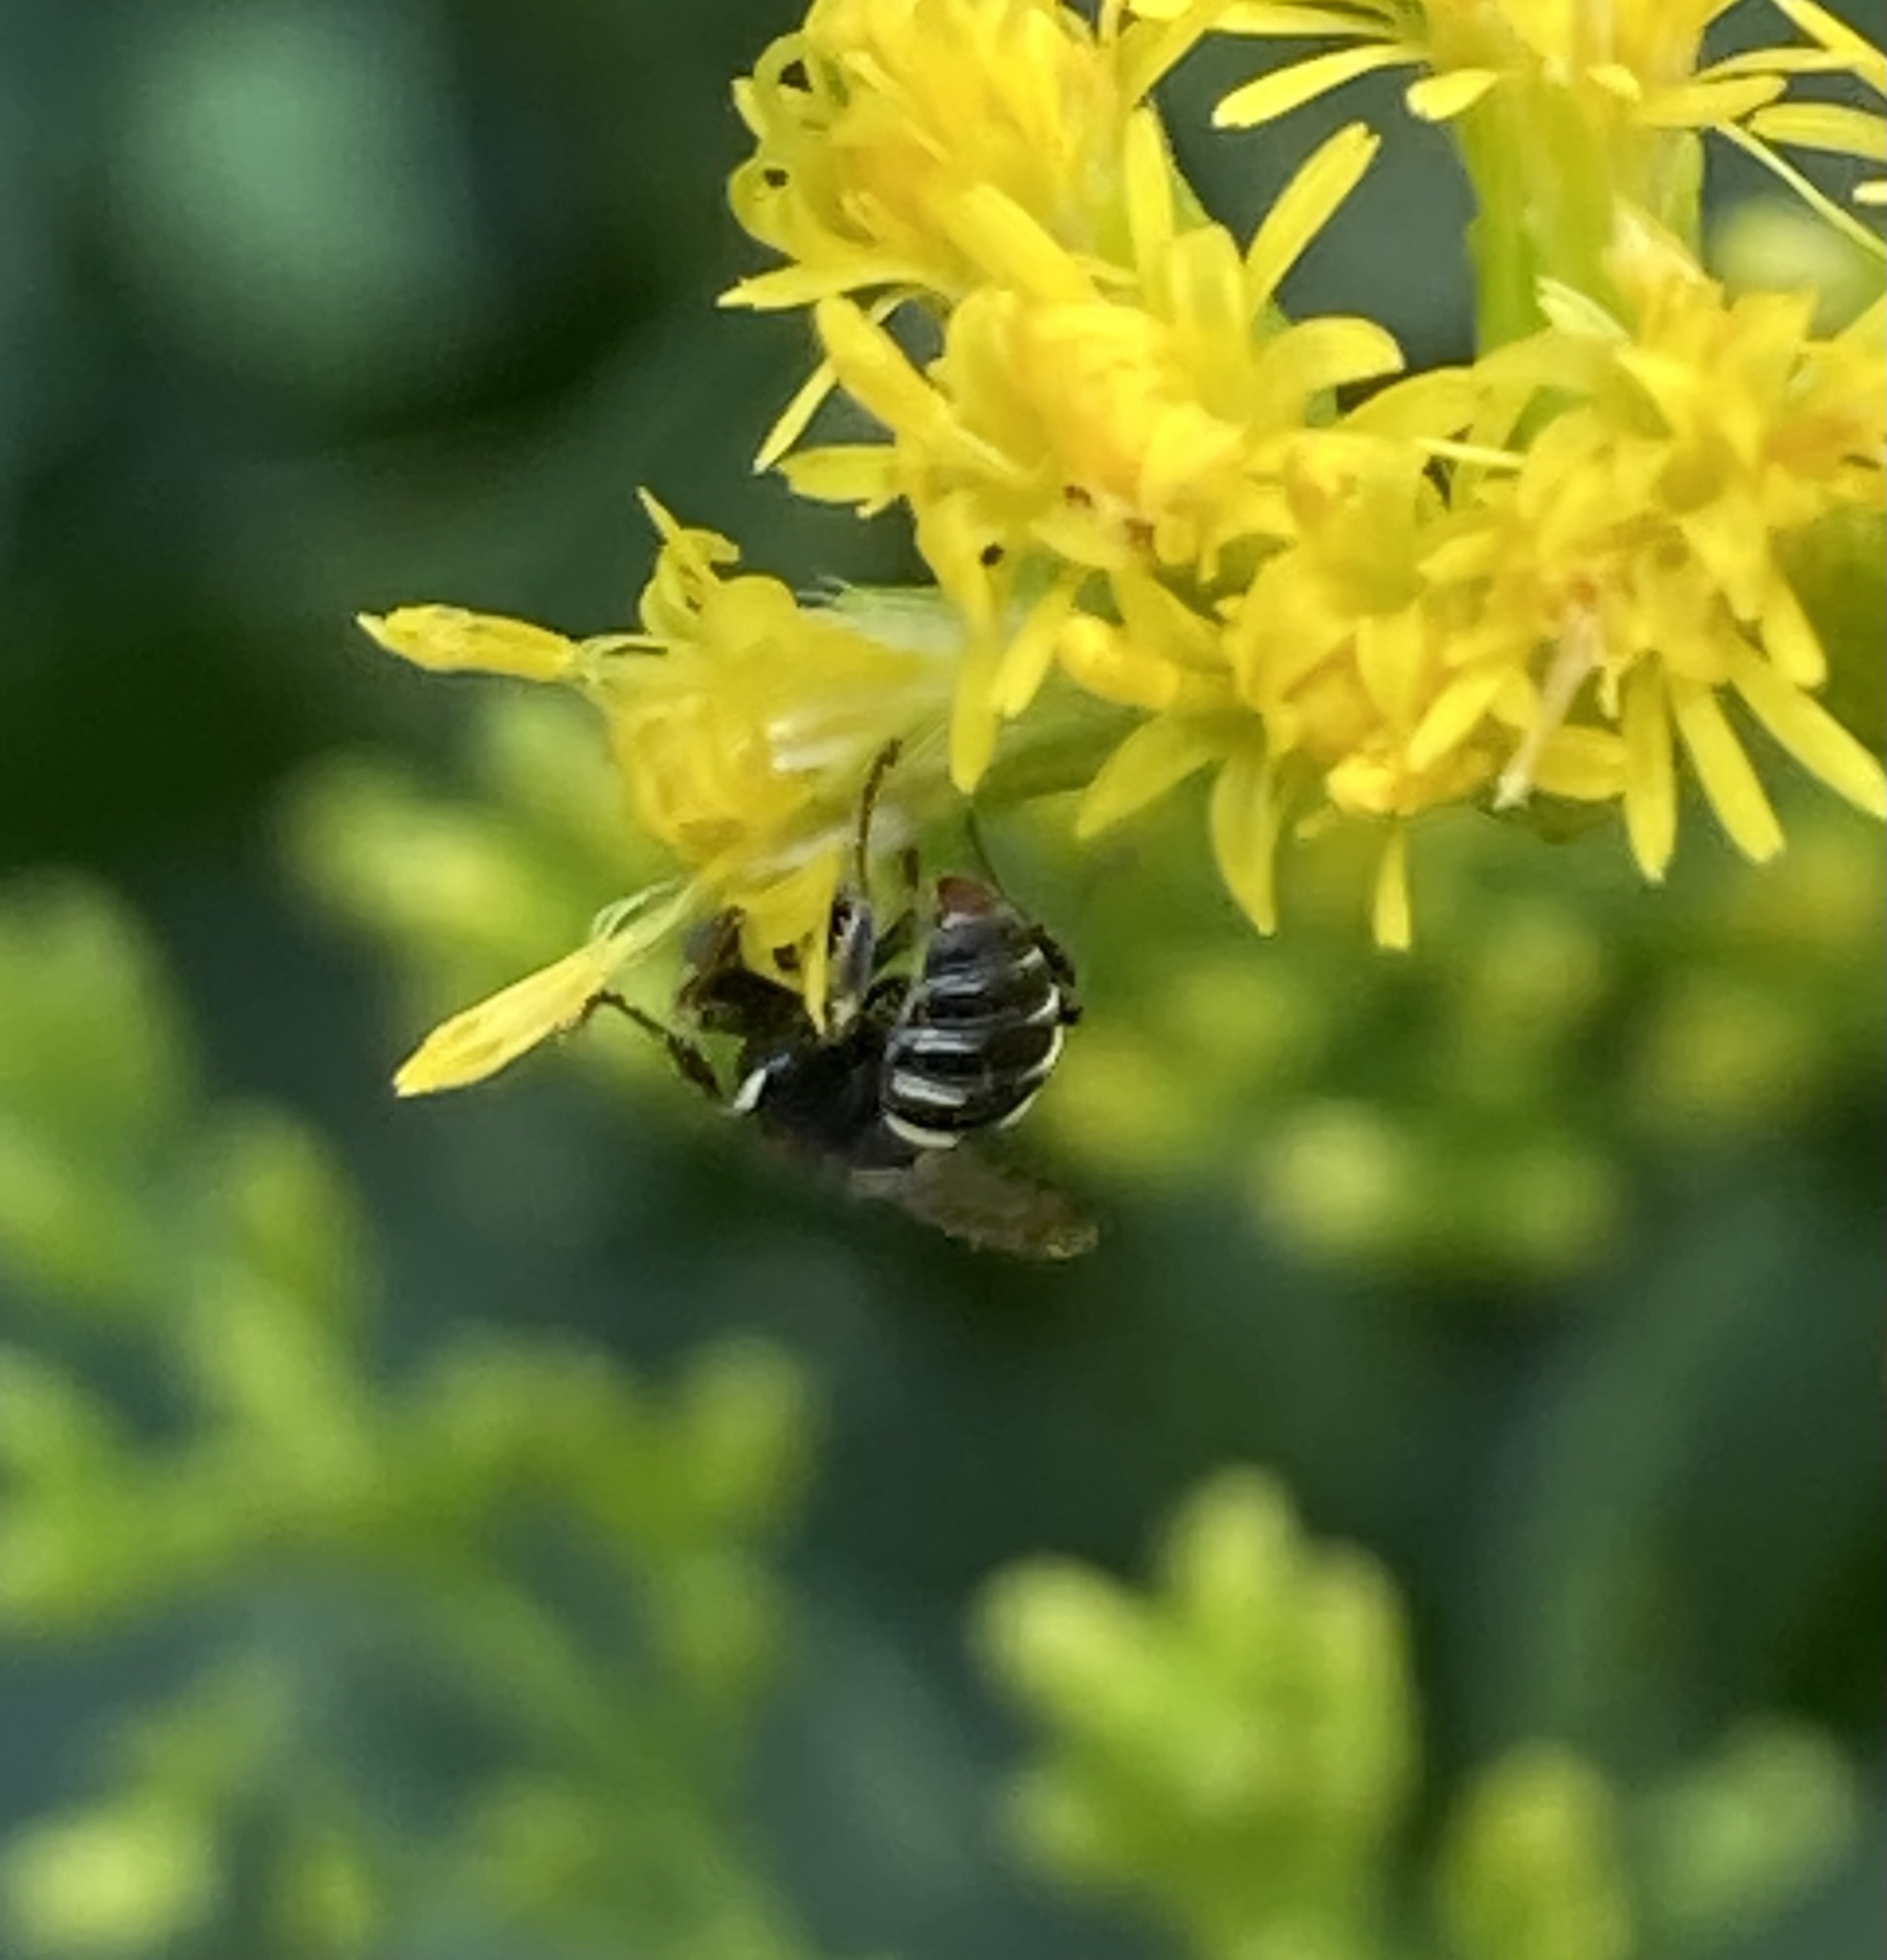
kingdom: Animalia
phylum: Arthropoda
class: Insecta
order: Hymenoptera
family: Crabronidae
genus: Oxybelus
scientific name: Oxybelus
